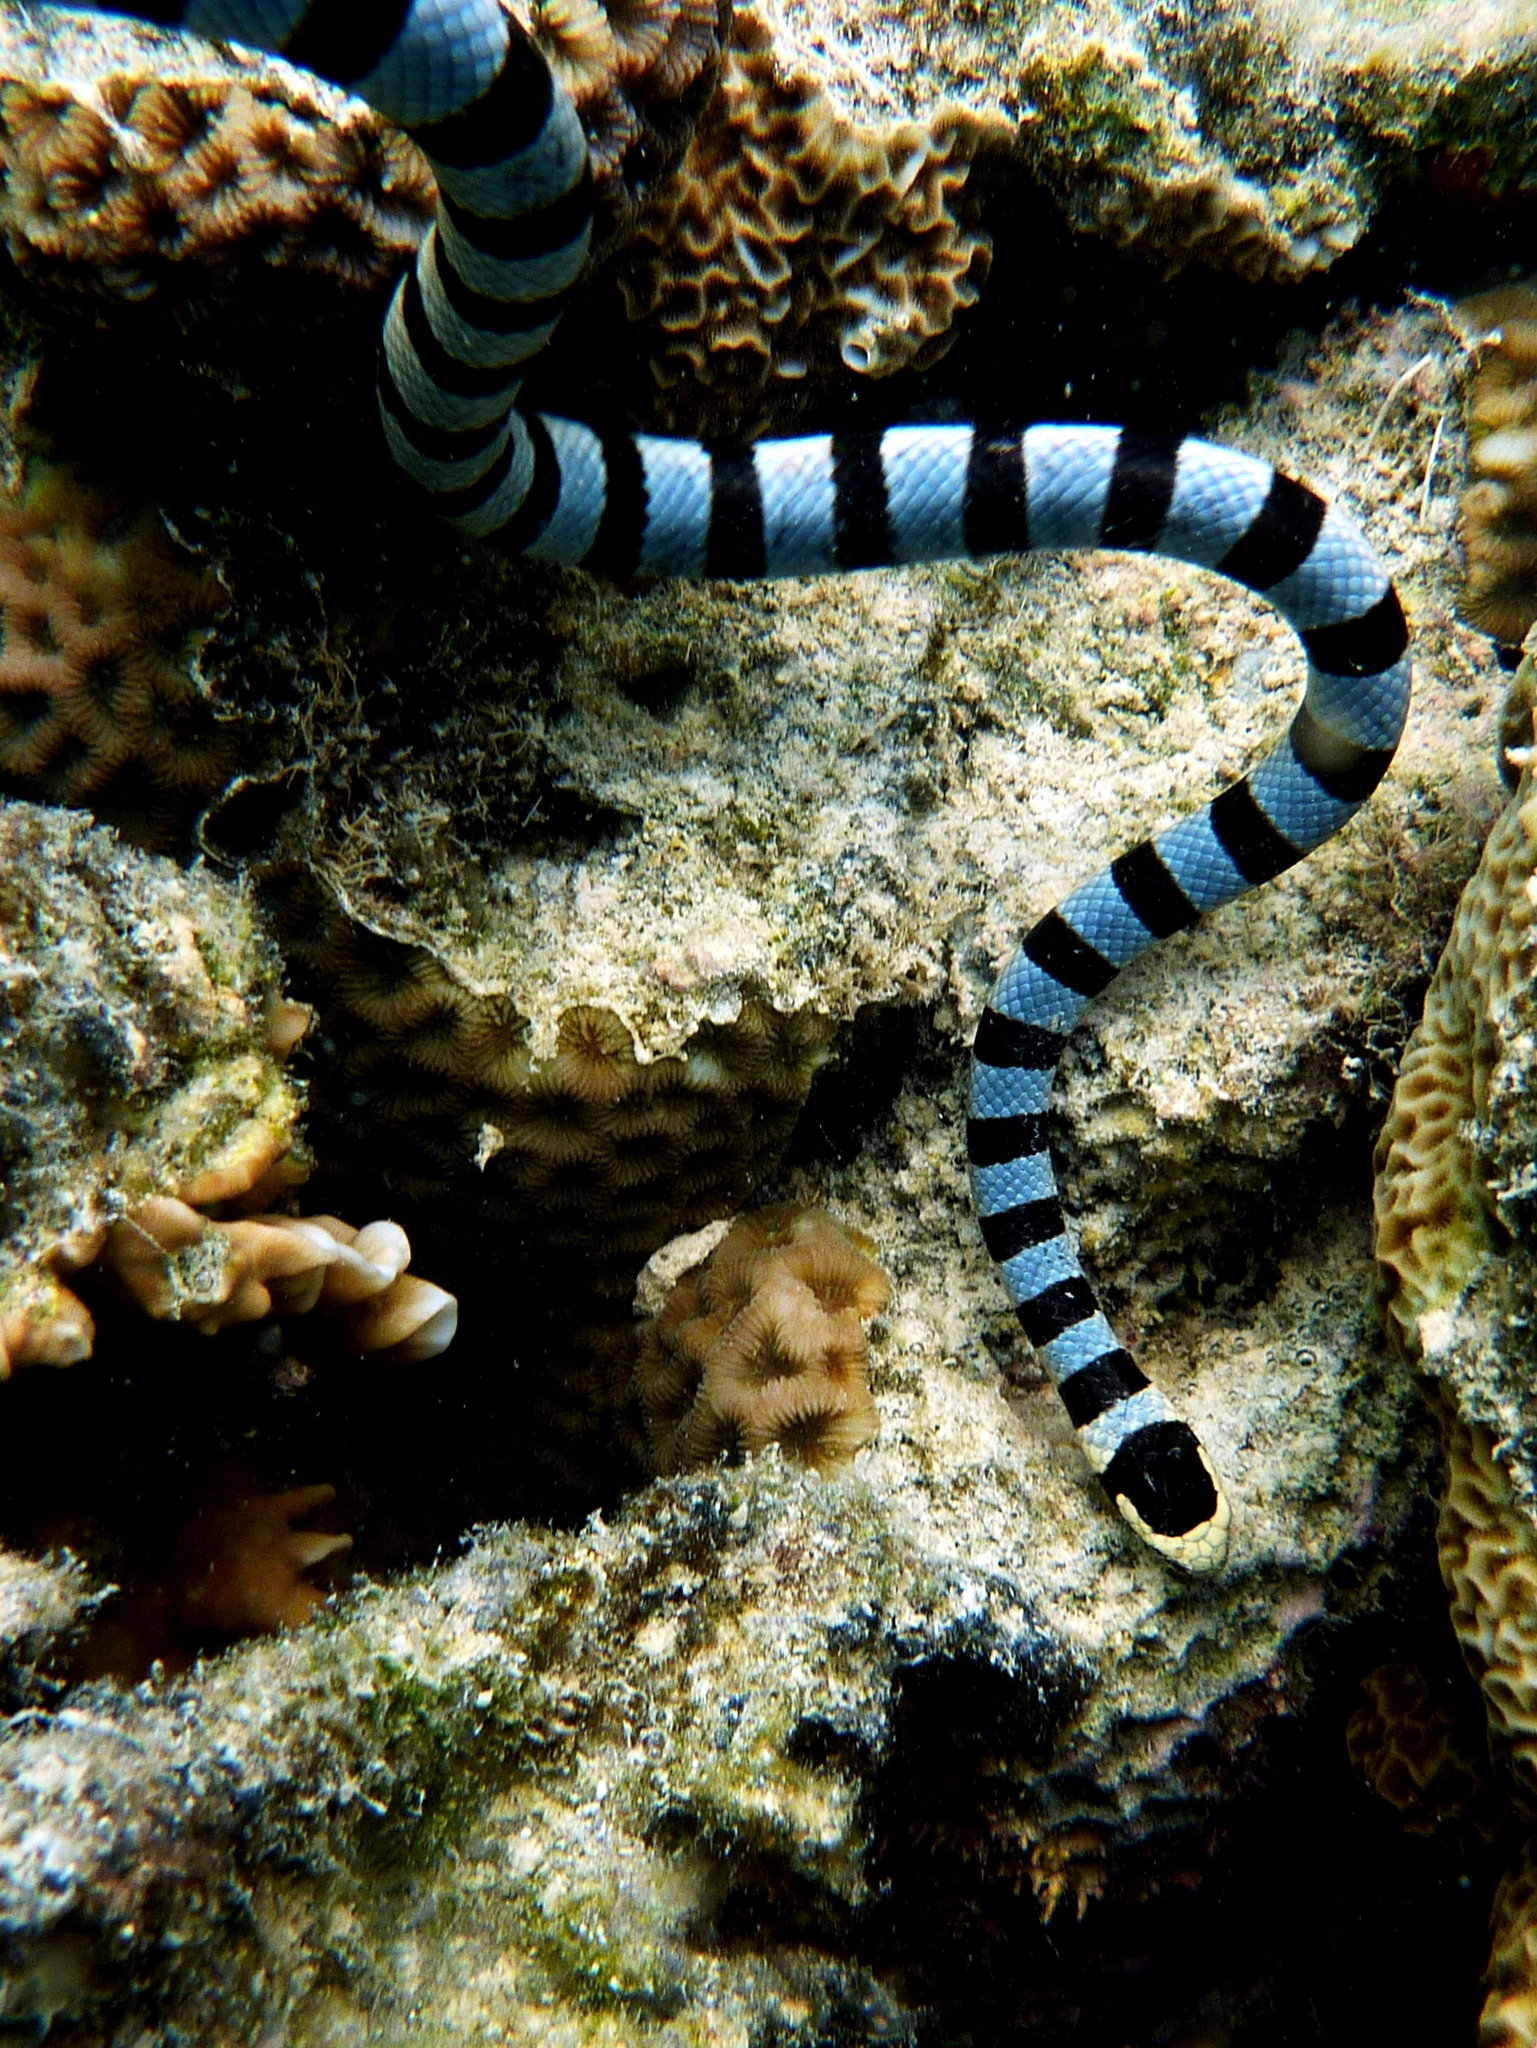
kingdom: Animalia
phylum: Chordata
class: Squamata
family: Elapidae
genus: Laticauda
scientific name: Laticauda colubrina
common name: Yellow-lipped sea krait
